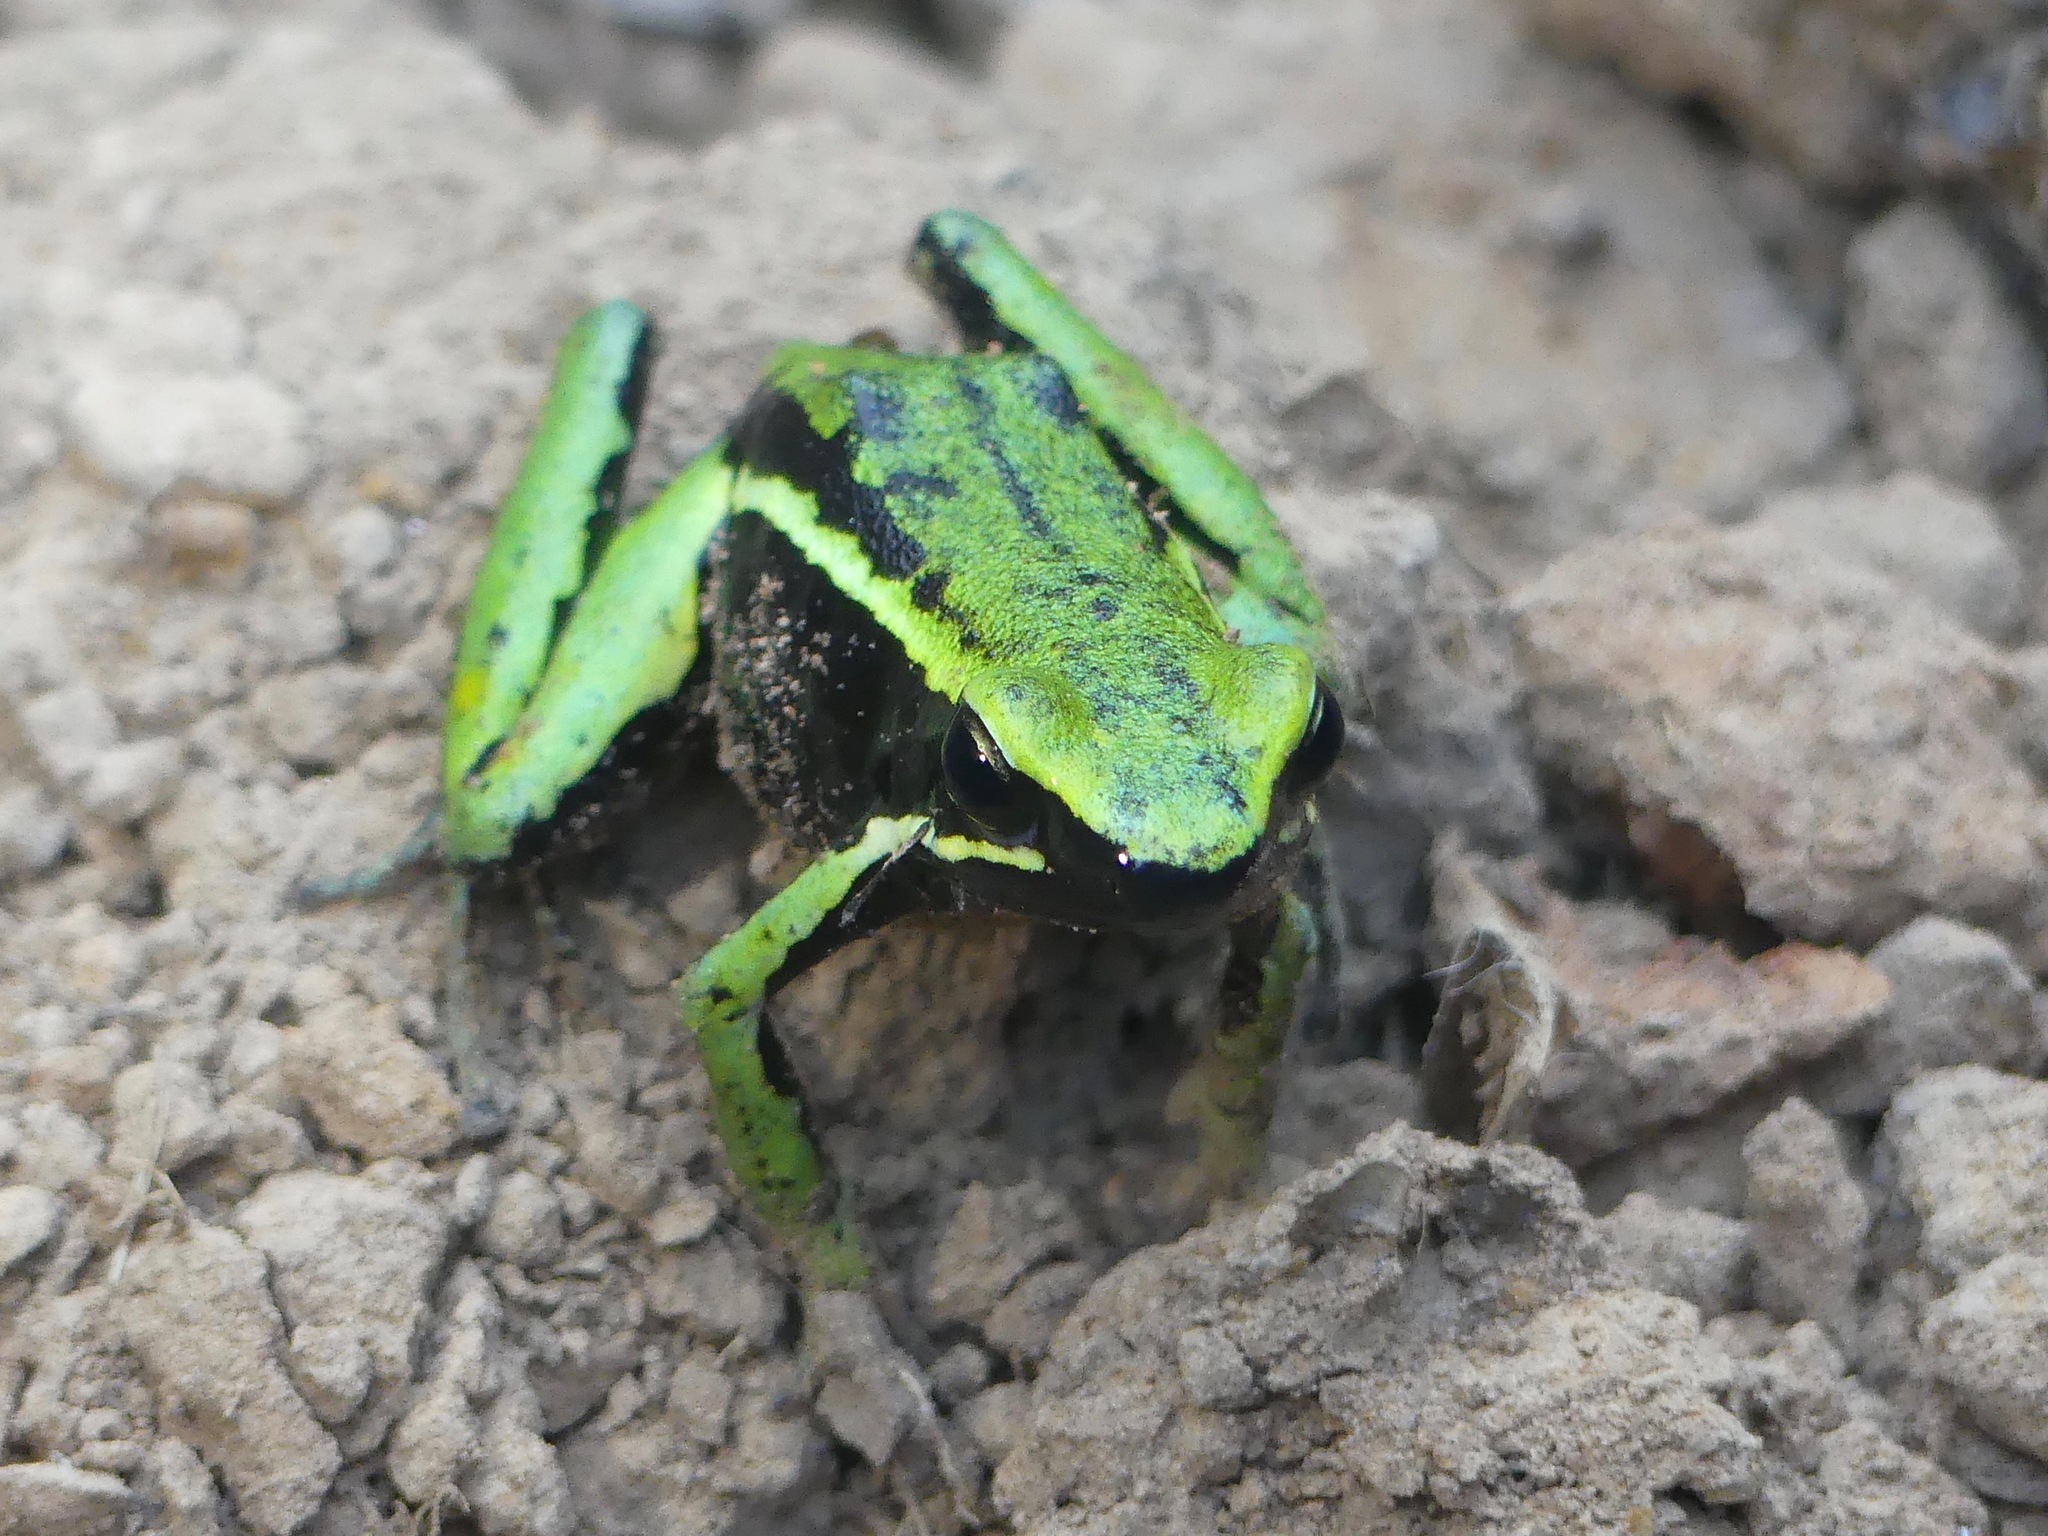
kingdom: Animalia
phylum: Chordata
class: Amphibia
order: Anura
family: Dendrobatidae
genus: Ameerega
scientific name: Ameerega trivittata
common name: Three-striped arrow-poison frog
